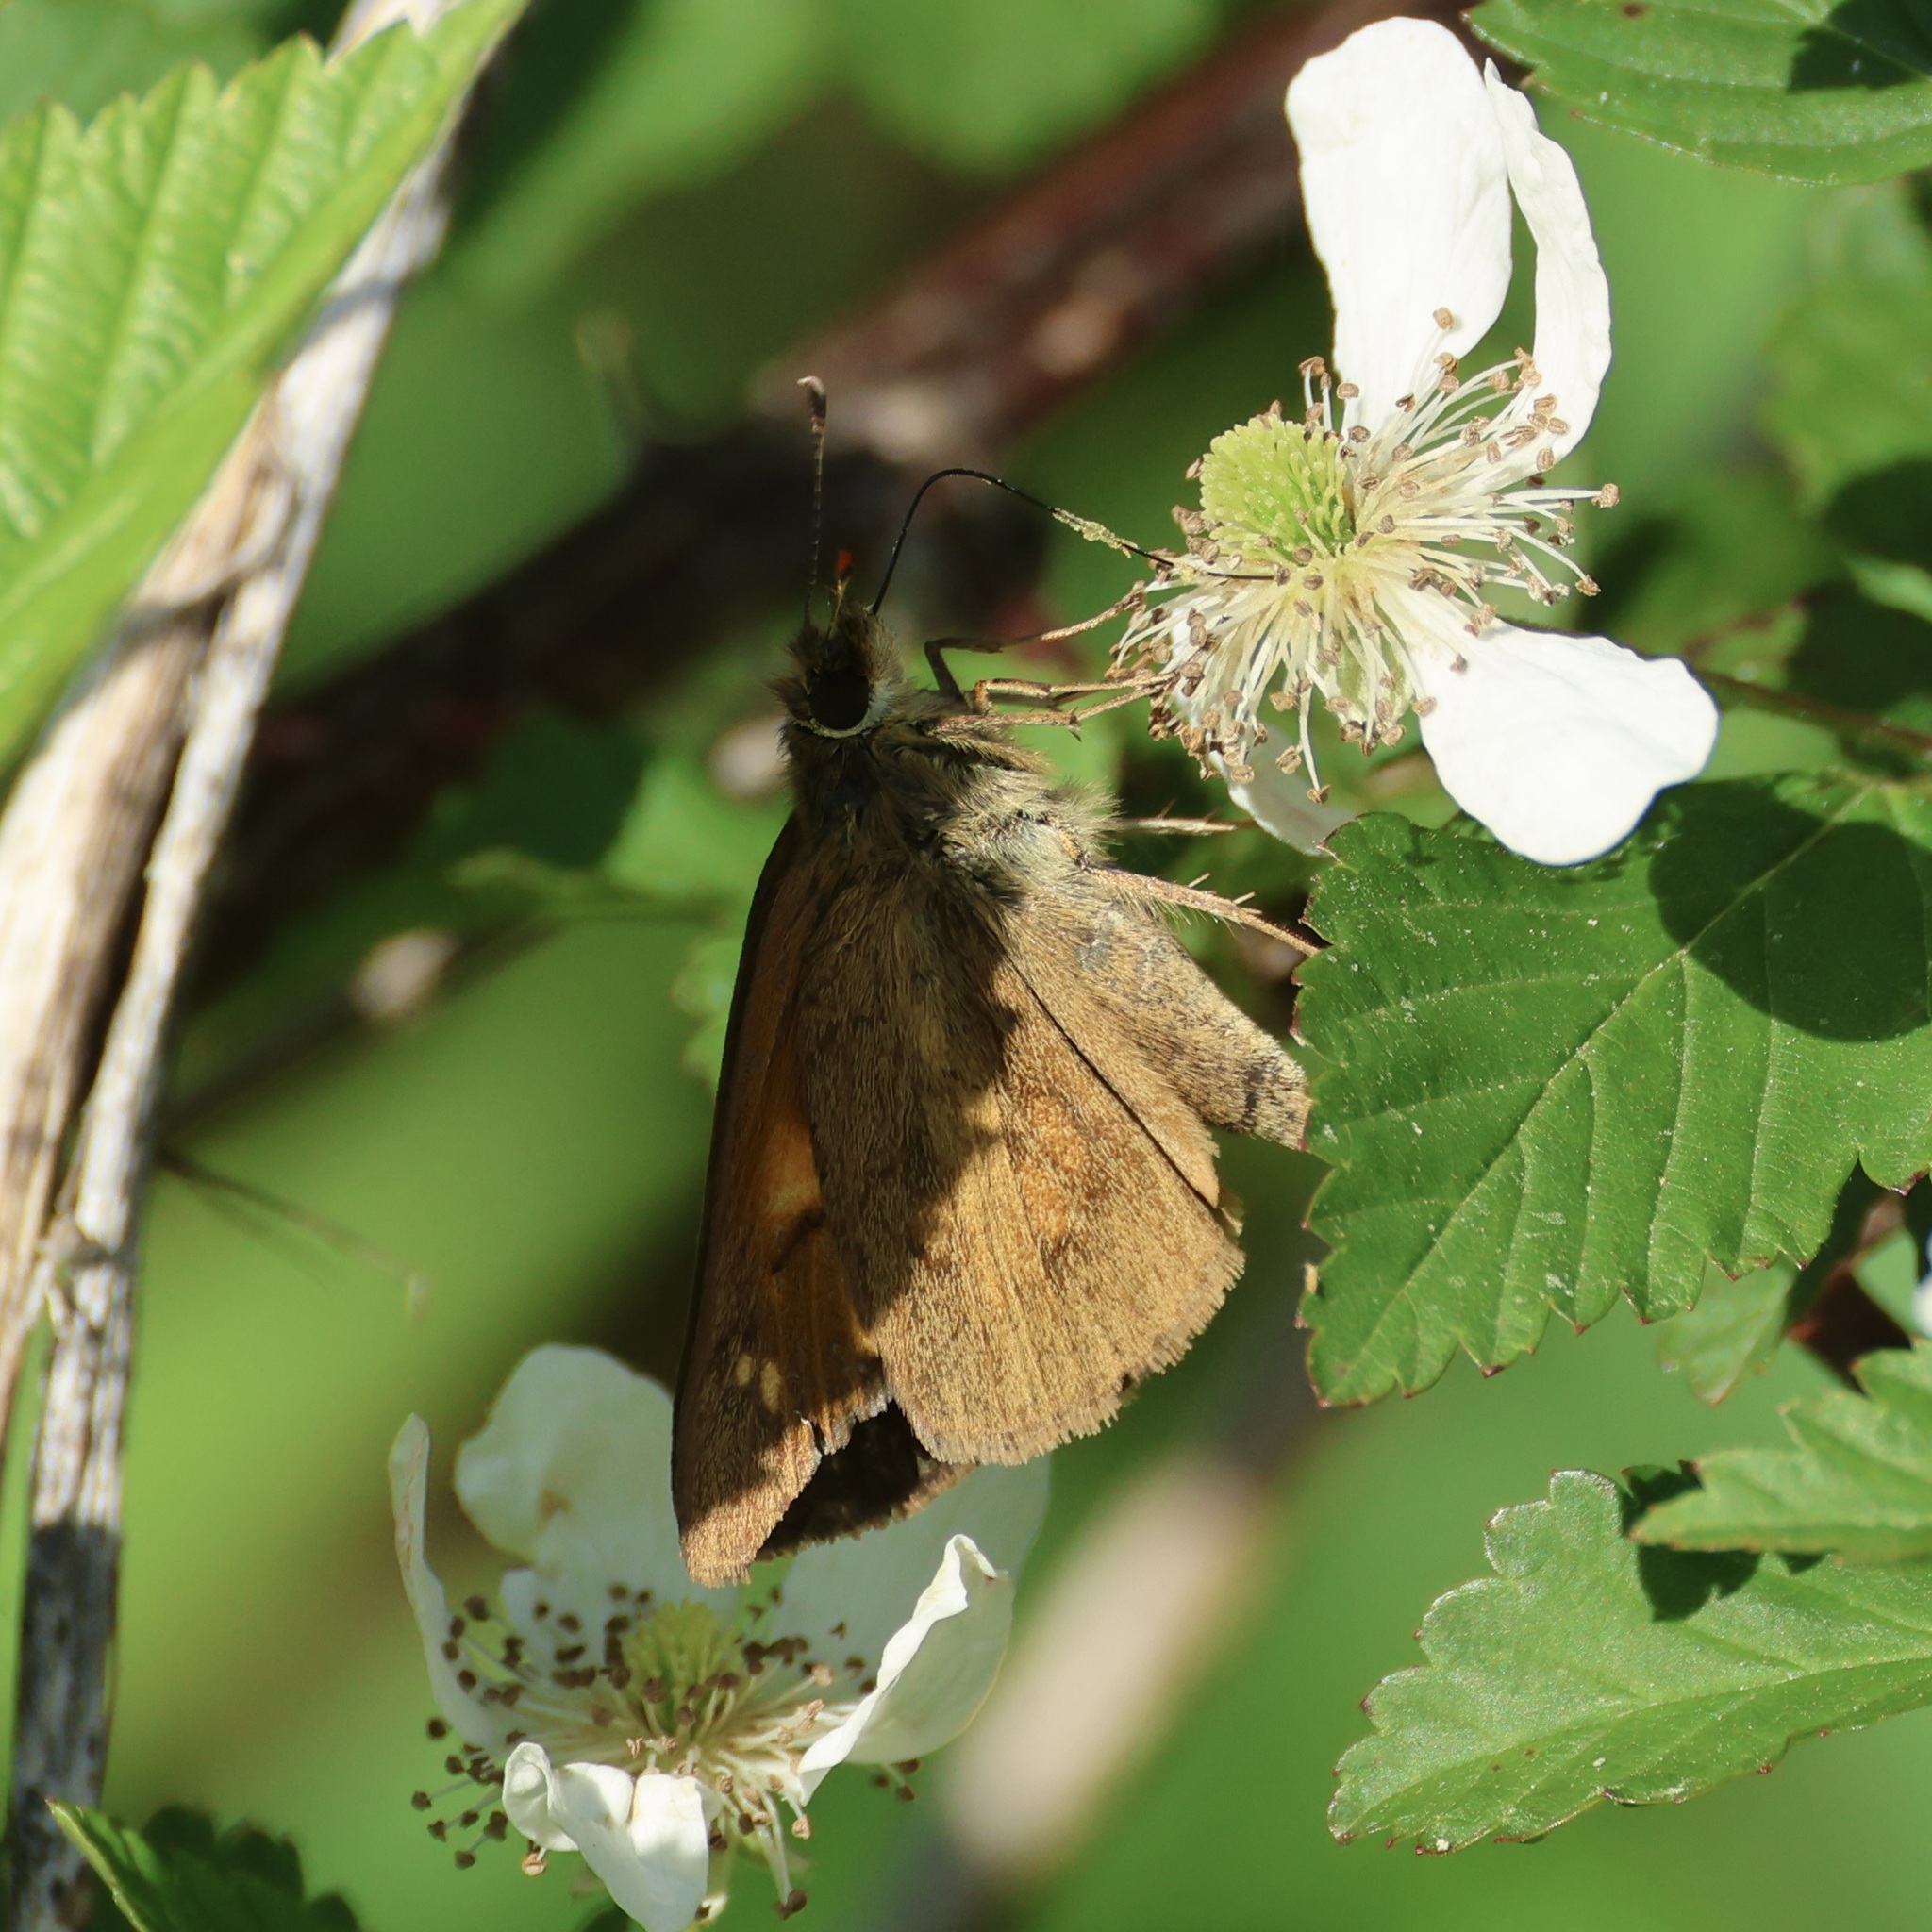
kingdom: Animalia
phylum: Arthropoda
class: Insecta
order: Lepidoptera
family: Hesperiidae
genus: Poanes
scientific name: Poanes viator
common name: Broad-winged skipper
